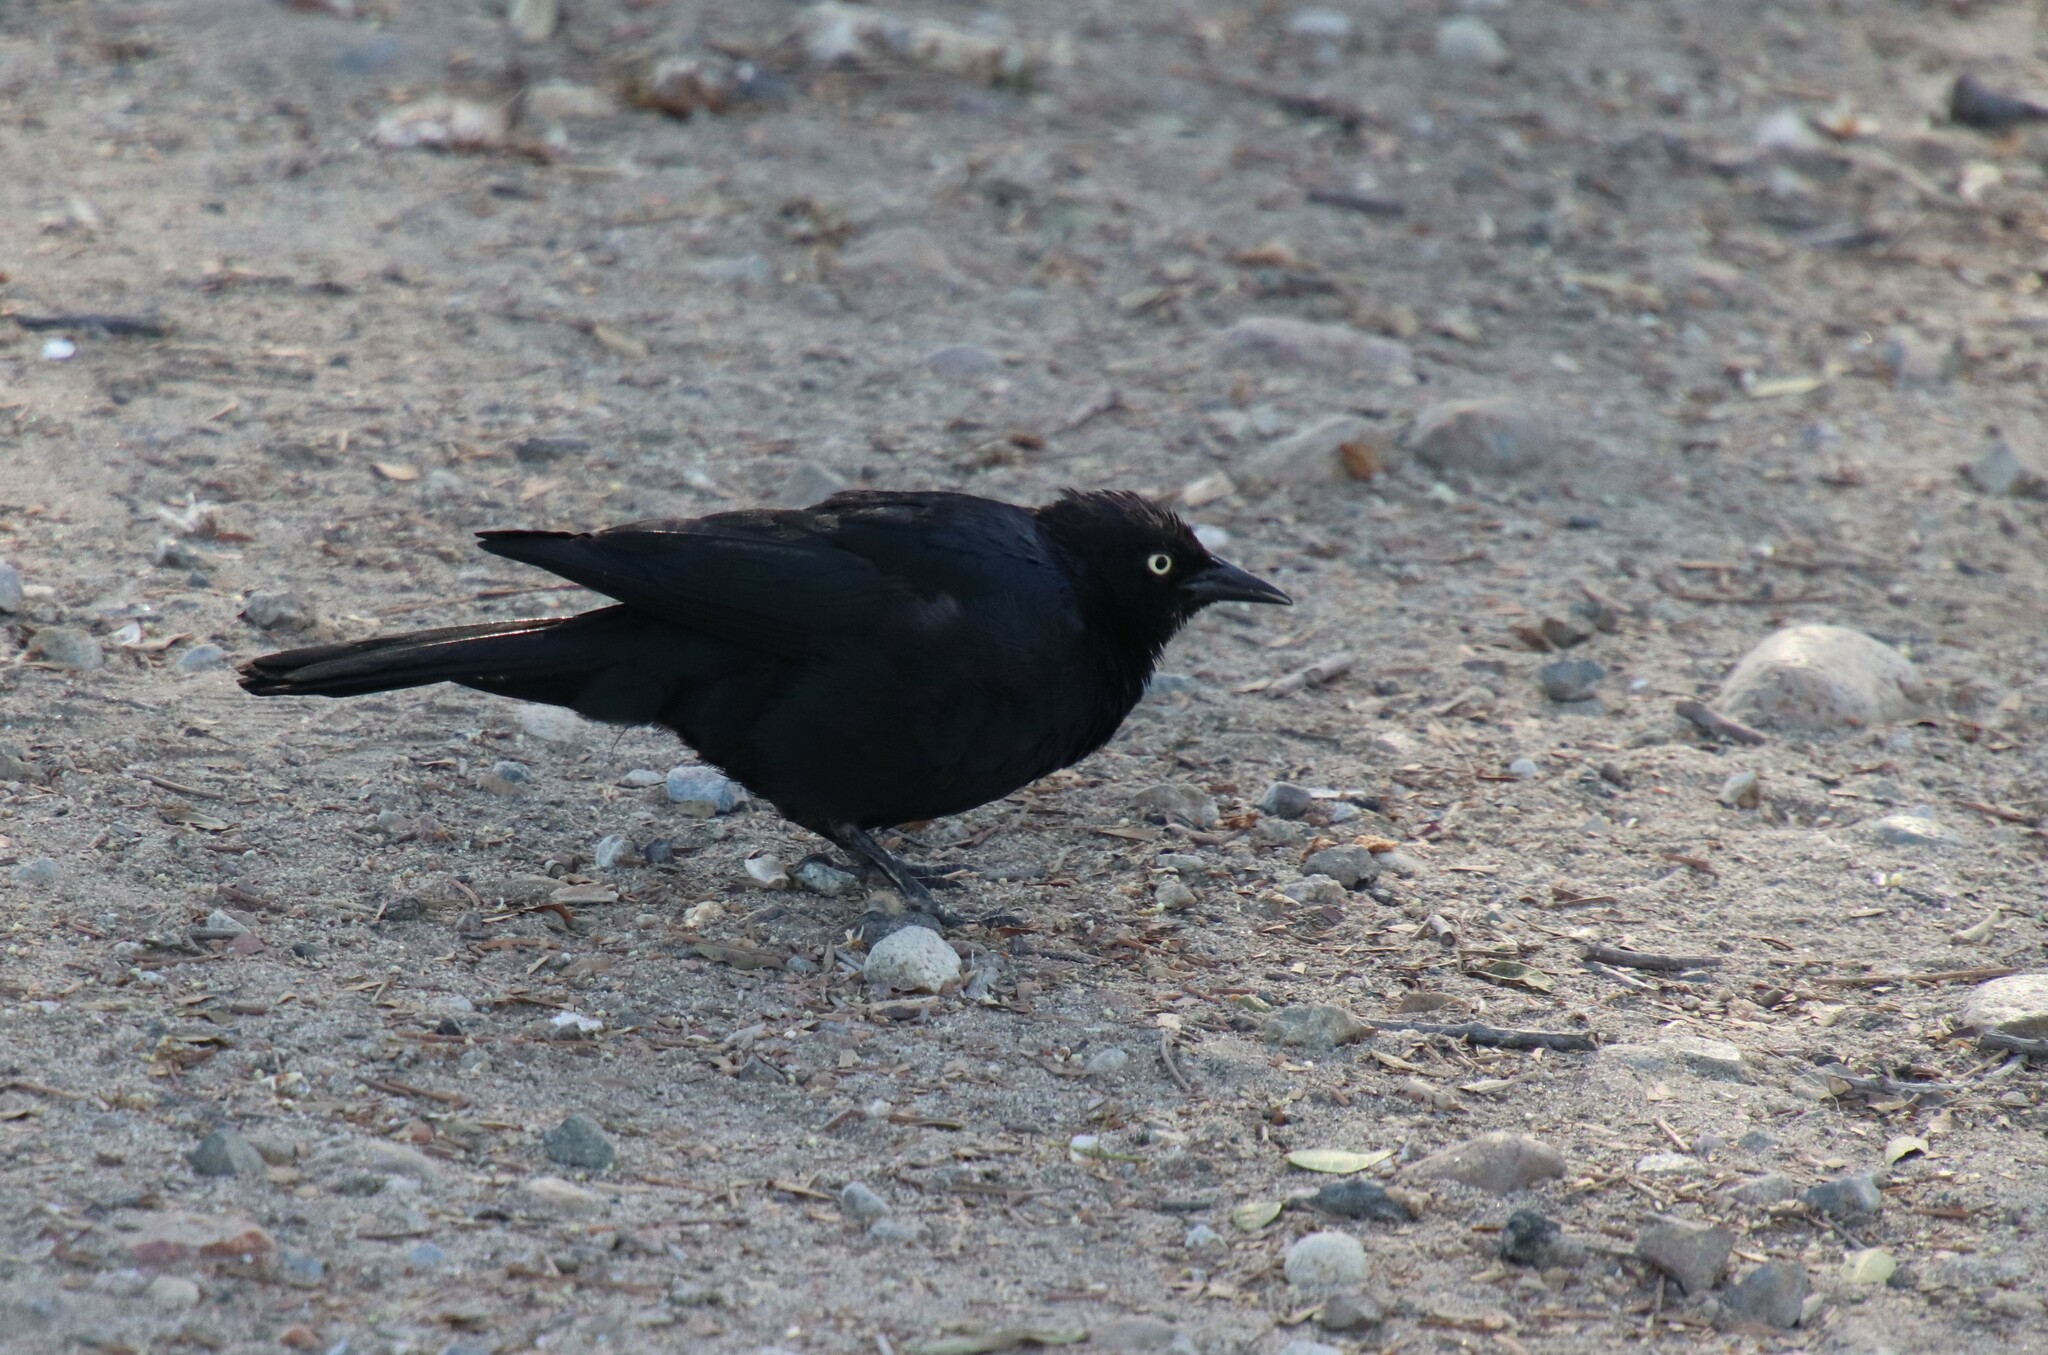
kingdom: Animalia
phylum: Chordata
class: Aves
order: Passeriformes
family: Icteridae
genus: Euphagus
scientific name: Euphagus cyanocephalus
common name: Brewer's blackbird
